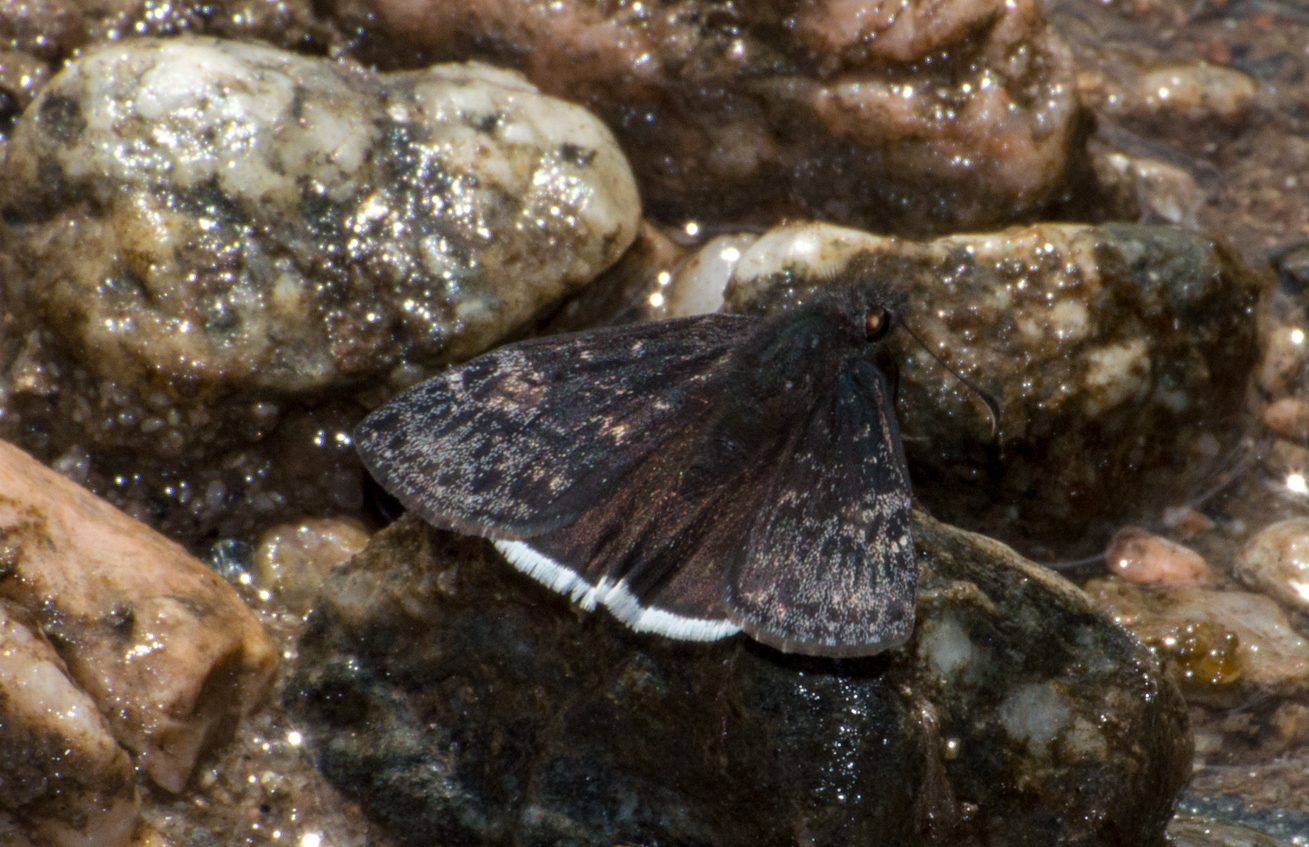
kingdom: Animalia
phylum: Arthropoda
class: Insecta
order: Lepidoptera
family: Hesperiidae
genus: Erynnis
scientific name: Erynnis funeralis
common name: Funereal duskywing
